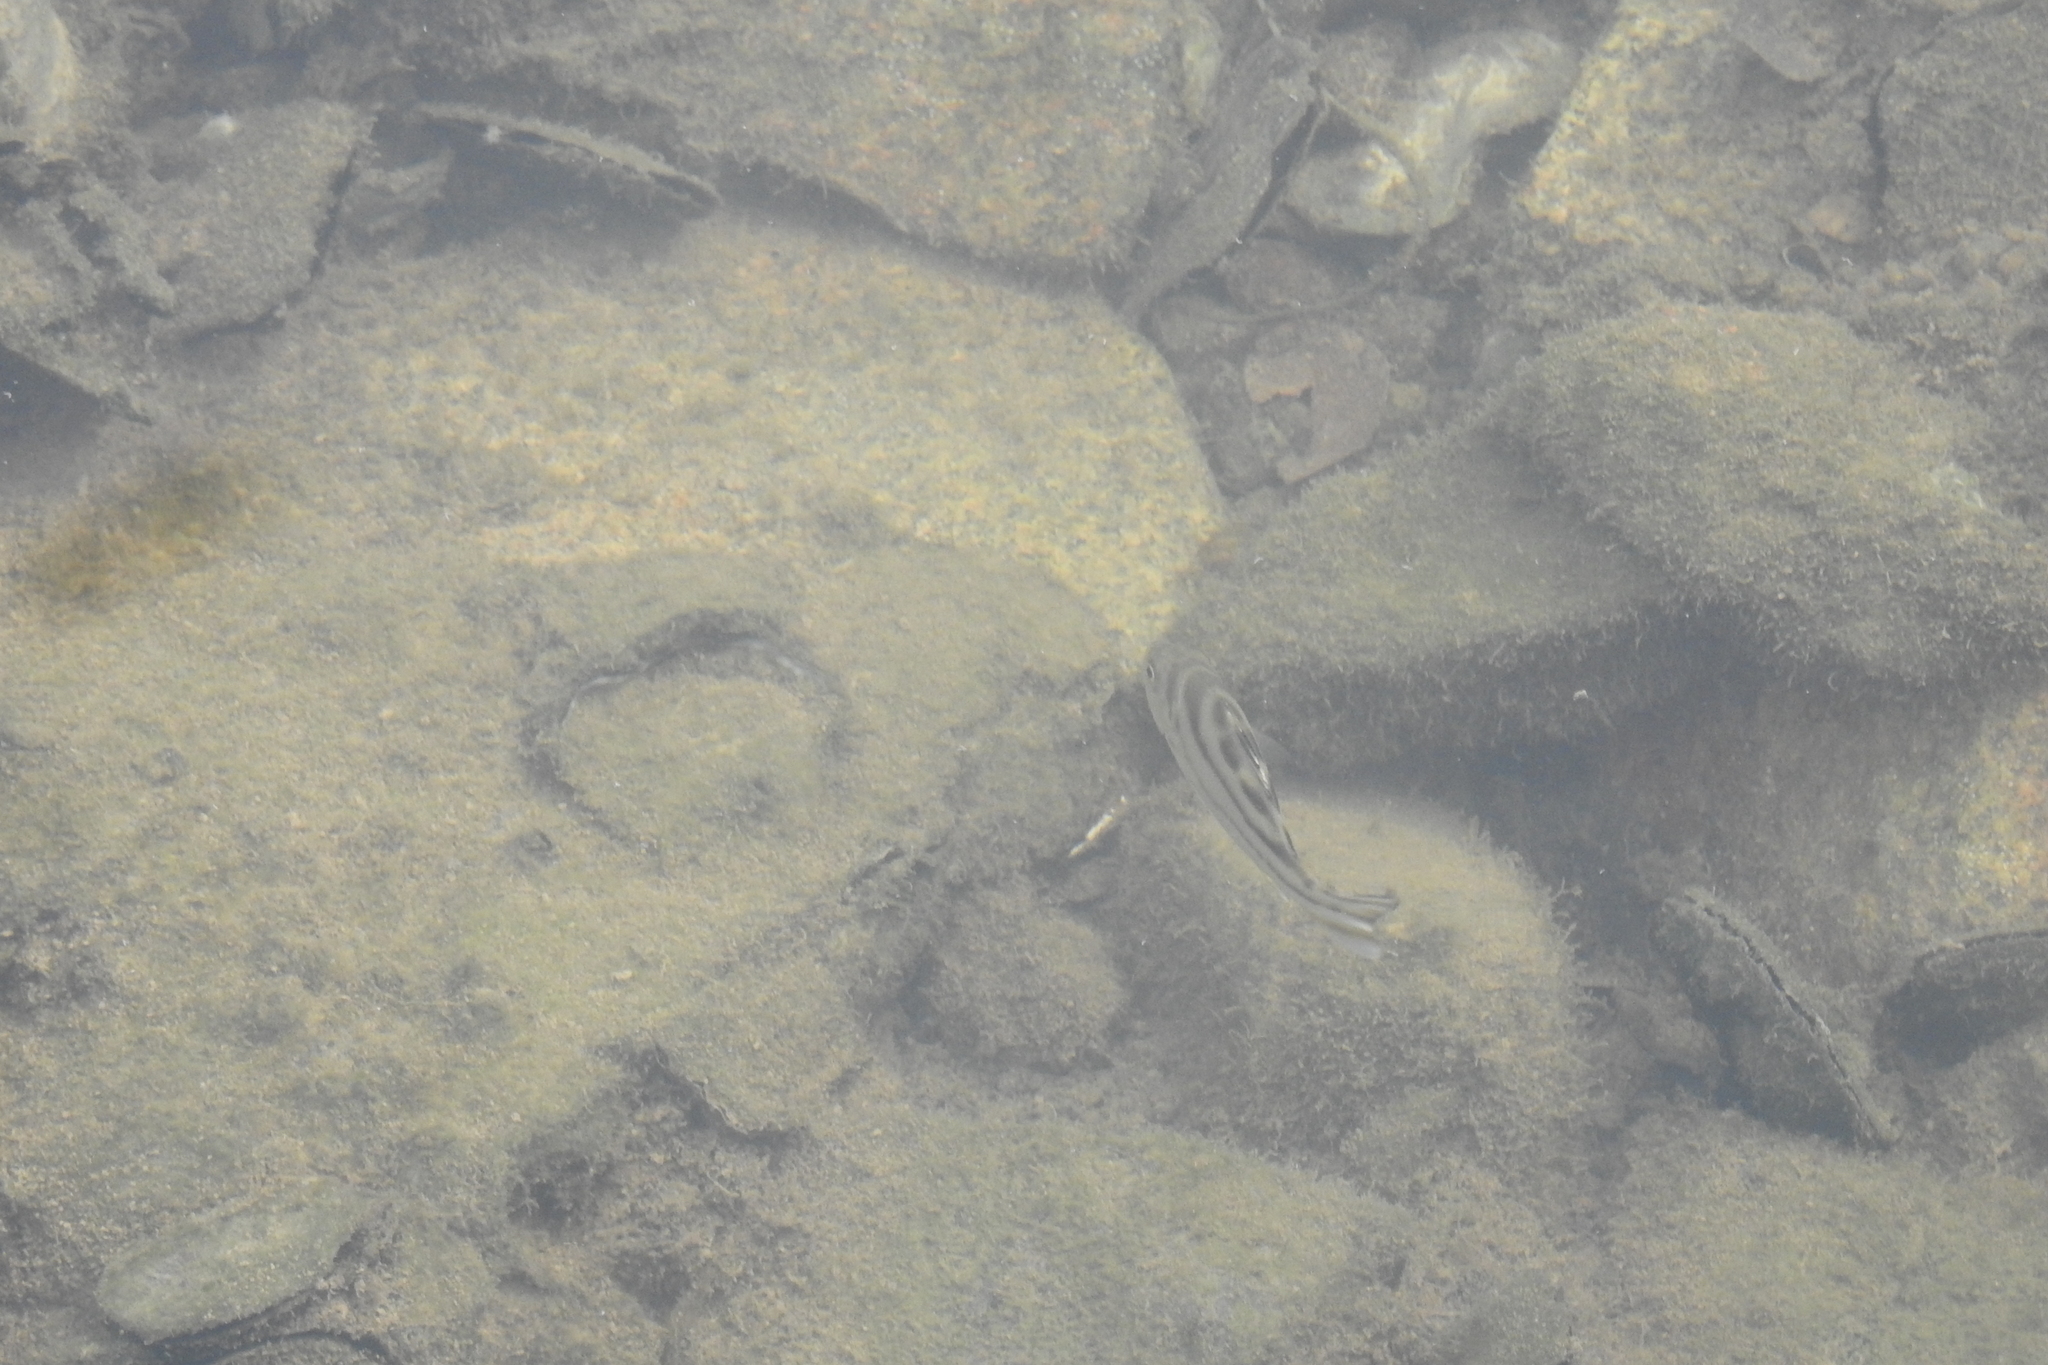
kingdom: Animalia
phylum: Chordata
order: Perciformes
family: Terapontidae
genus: Terapon
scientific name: Terapon jarbua
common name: Jarbua terapon
